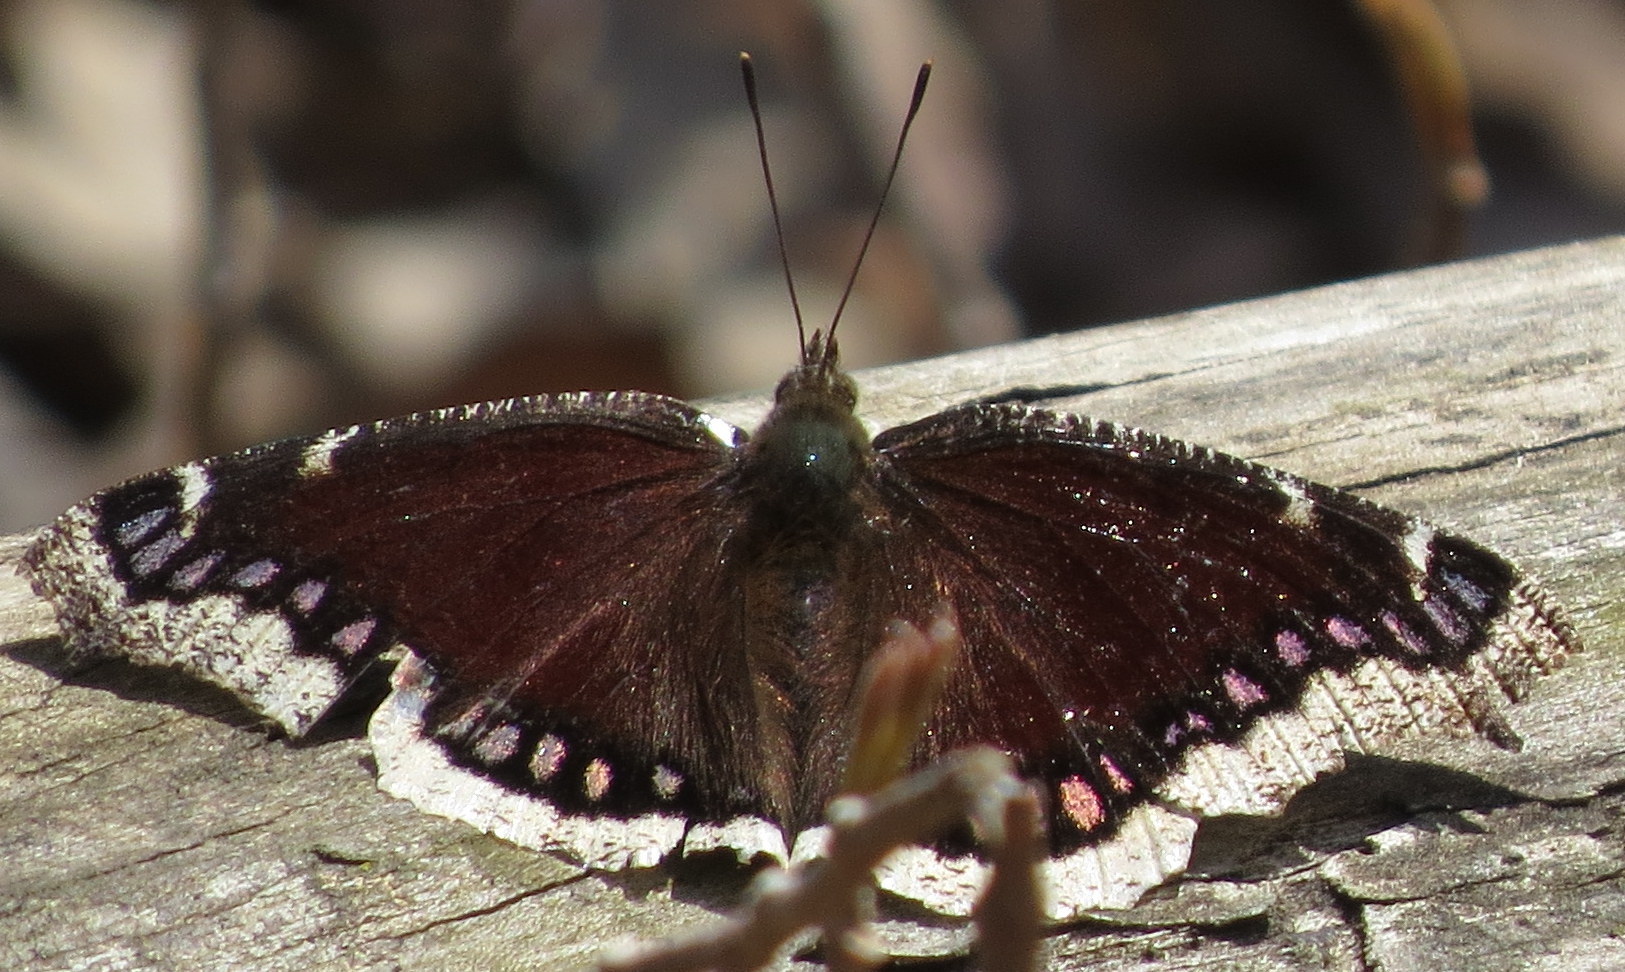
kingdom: Animalia
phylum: Arthropoda
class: Insecta
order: Lepidoptera
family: Nymphalidae
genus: Nymphalis
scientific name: Nymphalis antiopa
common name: Camberwell beauty
